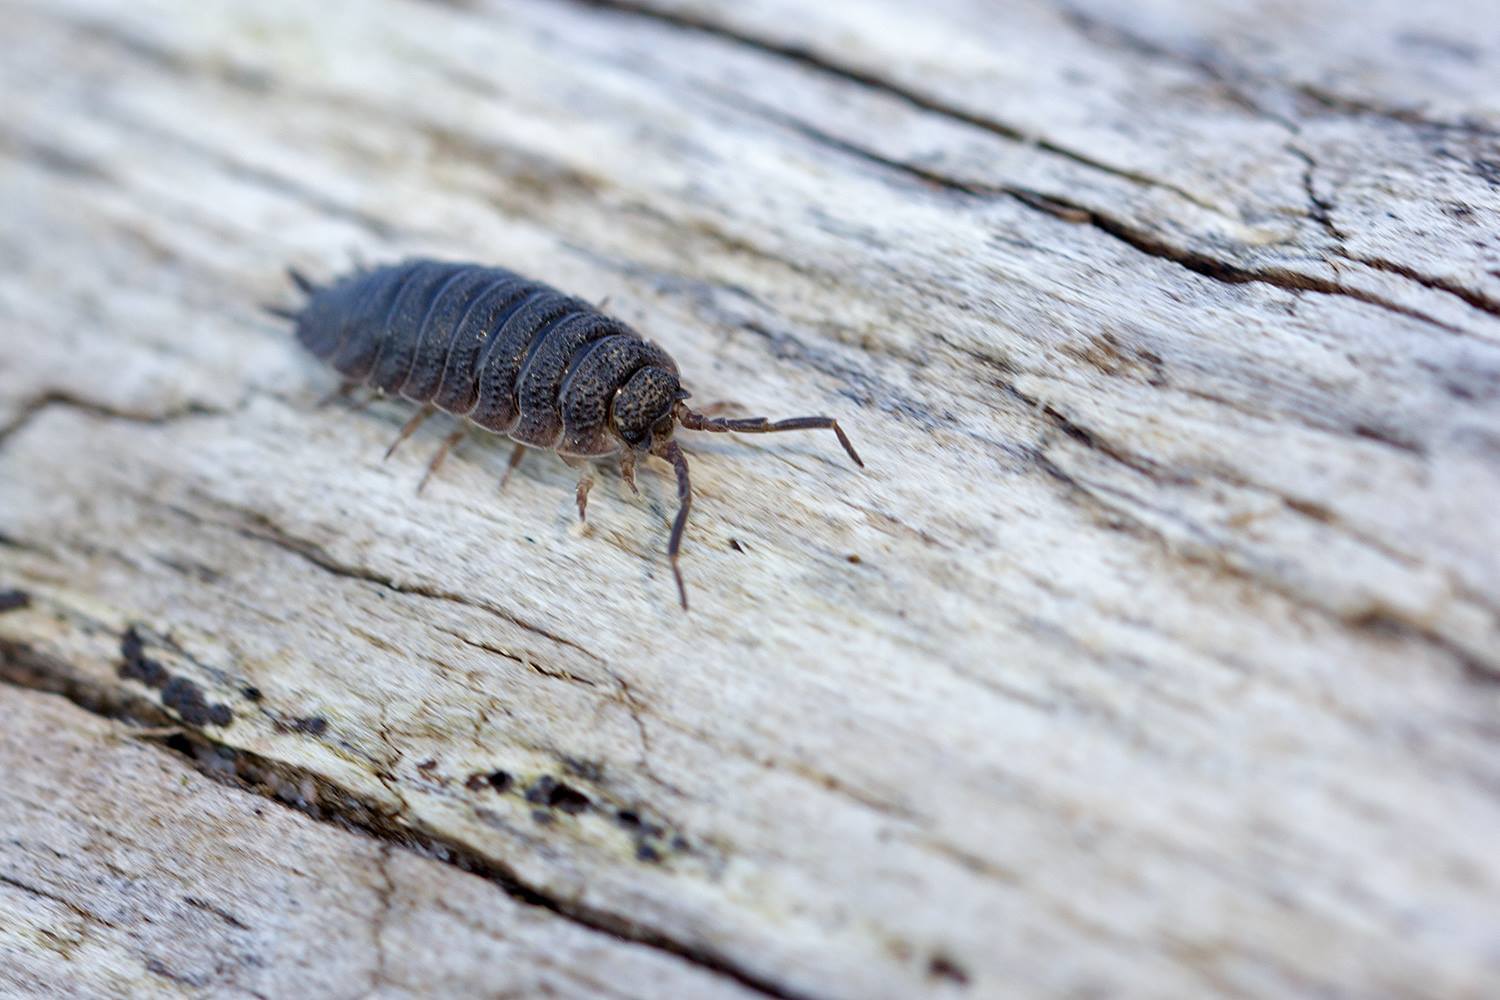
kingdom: Animalia
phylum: Arthropoda
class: Malacostraca
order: Isopoda
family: Porcellionidae
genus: Porcellio
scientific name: Porcellio scaber
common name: Common rough woodlouse
